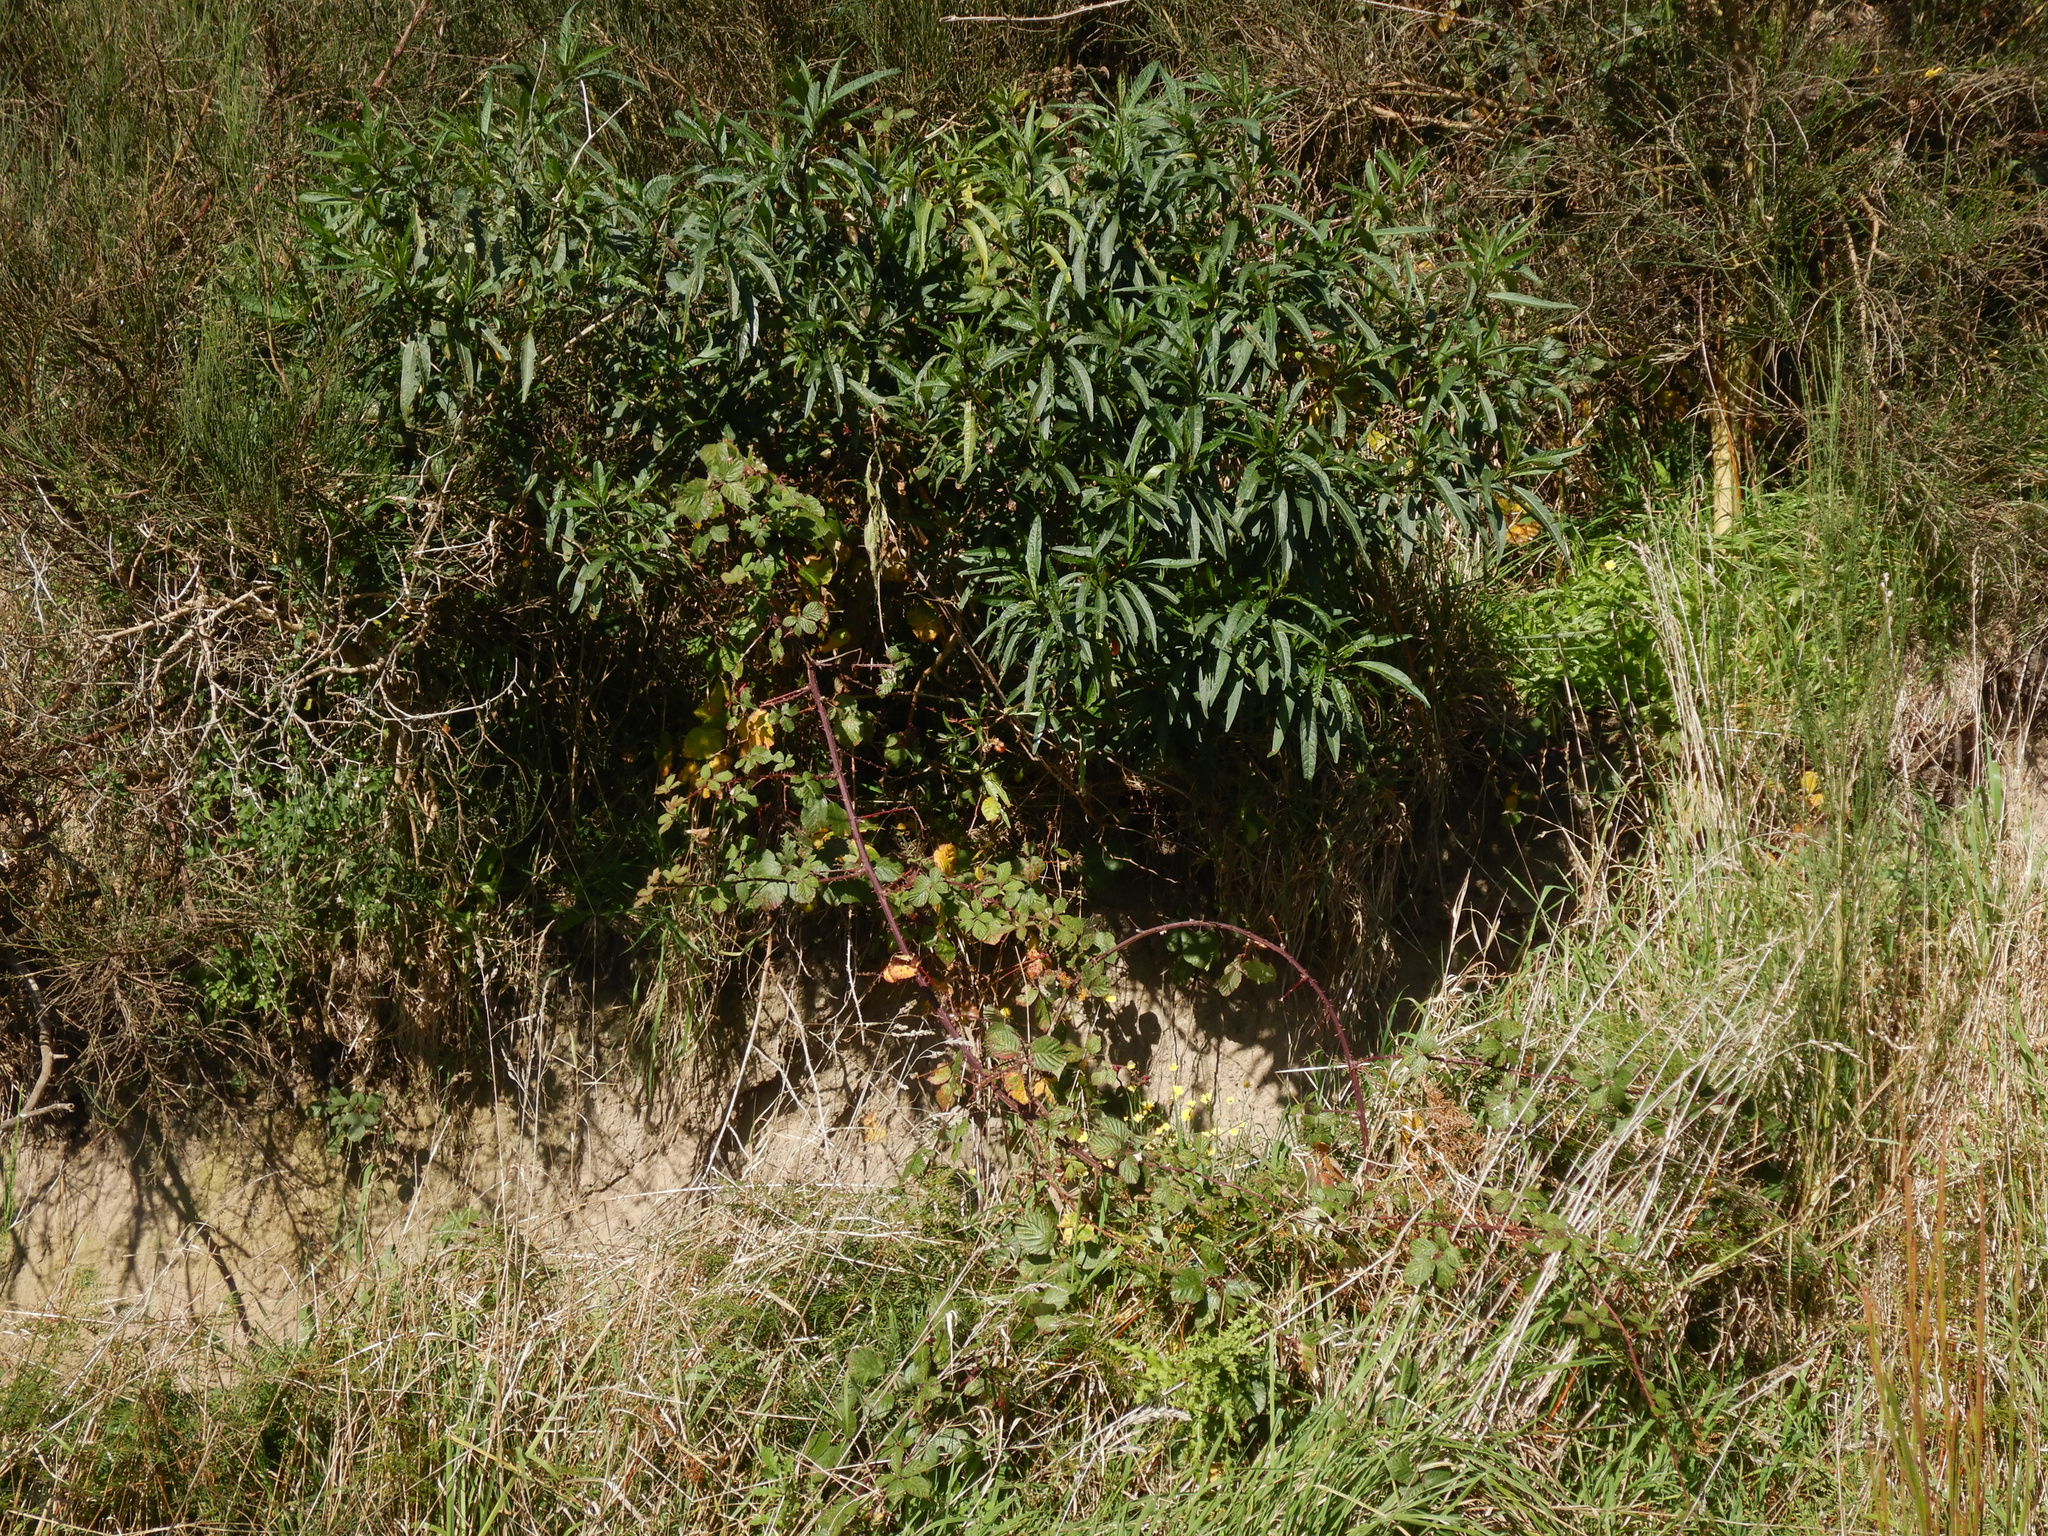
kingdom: Plantae
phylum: Tracheophyta
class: Magnoliopsida
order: Rosales
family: Rosaceae
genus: Rubus
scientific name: Rubus fruticosus
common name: Blackberry, bramble
